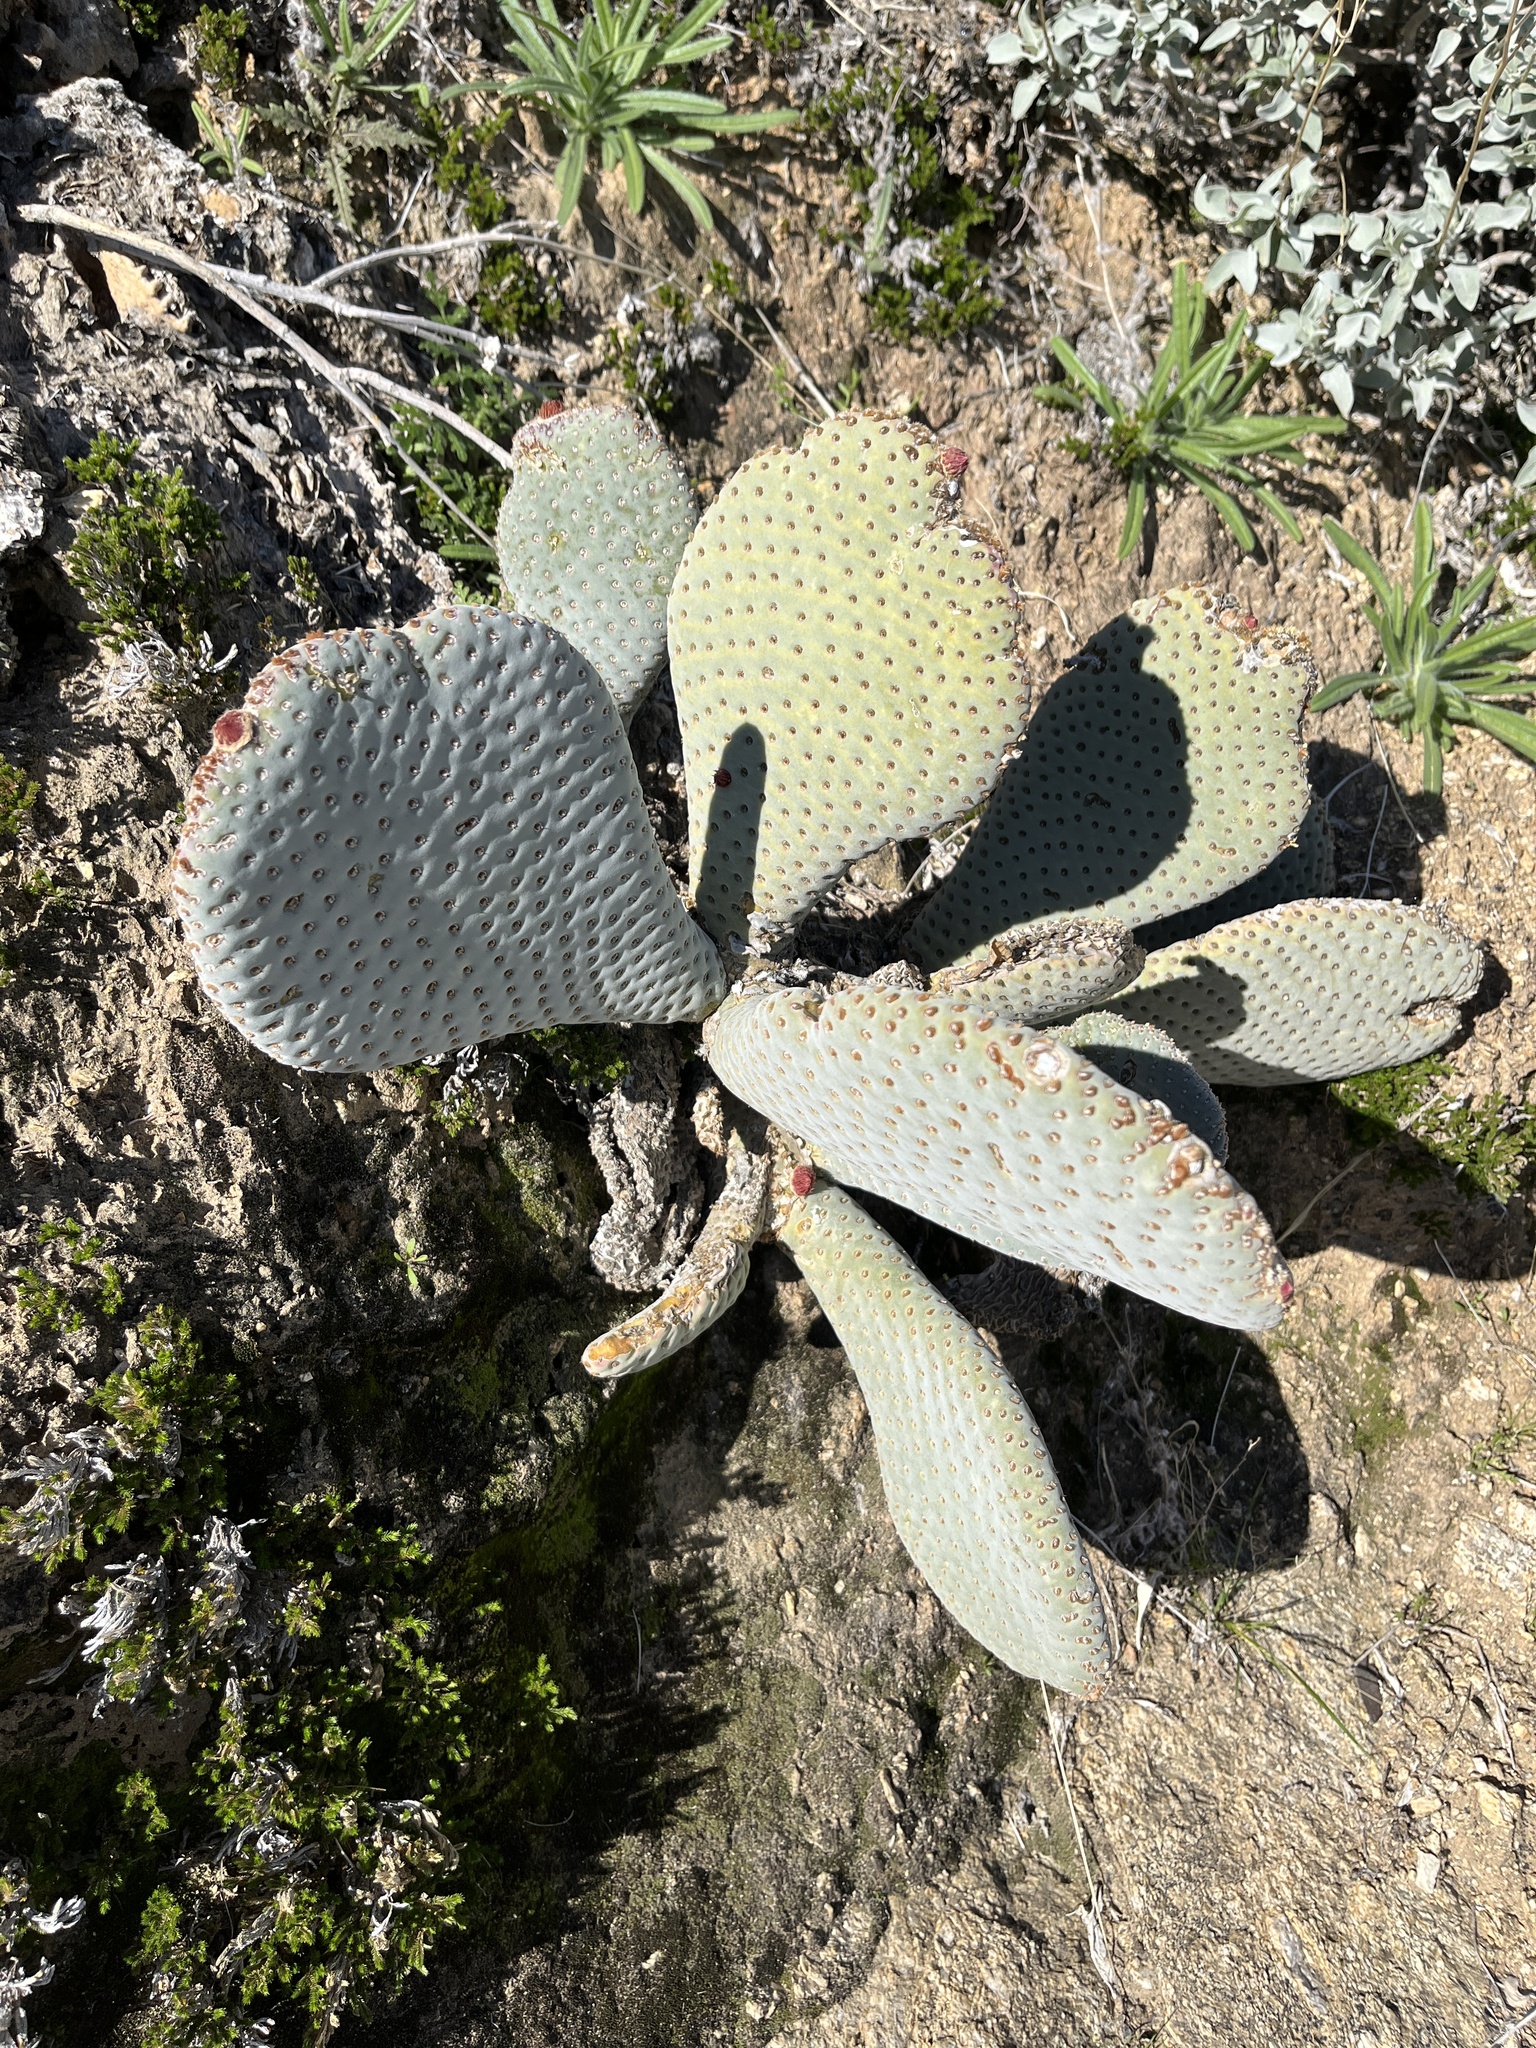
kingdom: Plantae
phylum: Tracheophyta
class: Magnoliopsida
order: Caryophyllales
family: Cactaceae
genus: Opuntia
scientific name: Opuntia basilaris
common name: Beavertail prickly-pear
